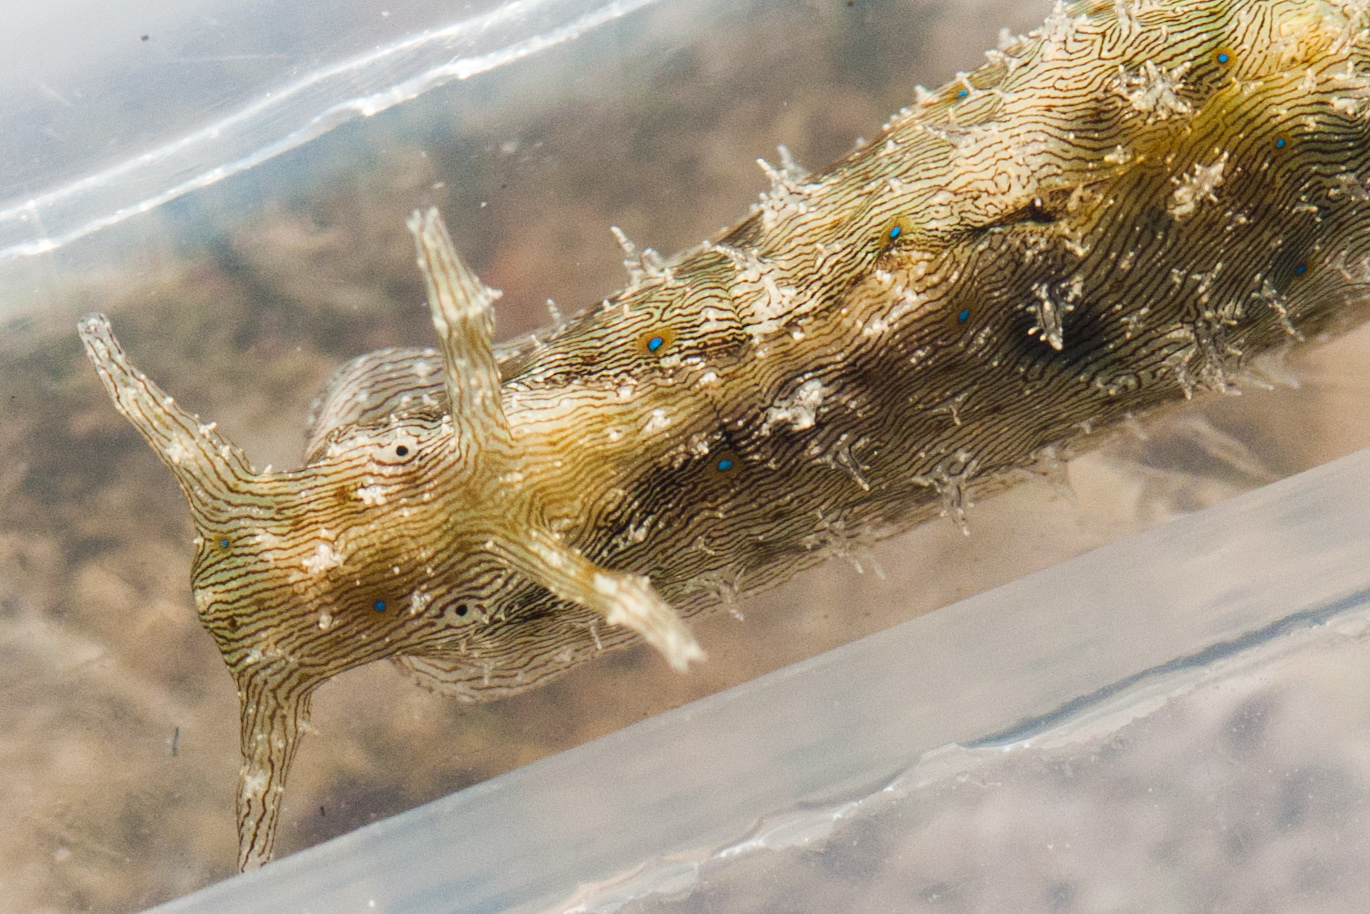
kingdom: Animalia
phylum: Mollusca
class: Gastropoda
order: Aplysiida
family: Aplysiidae
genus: Stylocheilus
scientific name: Stylocheilus striatus
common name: Striated seahare
